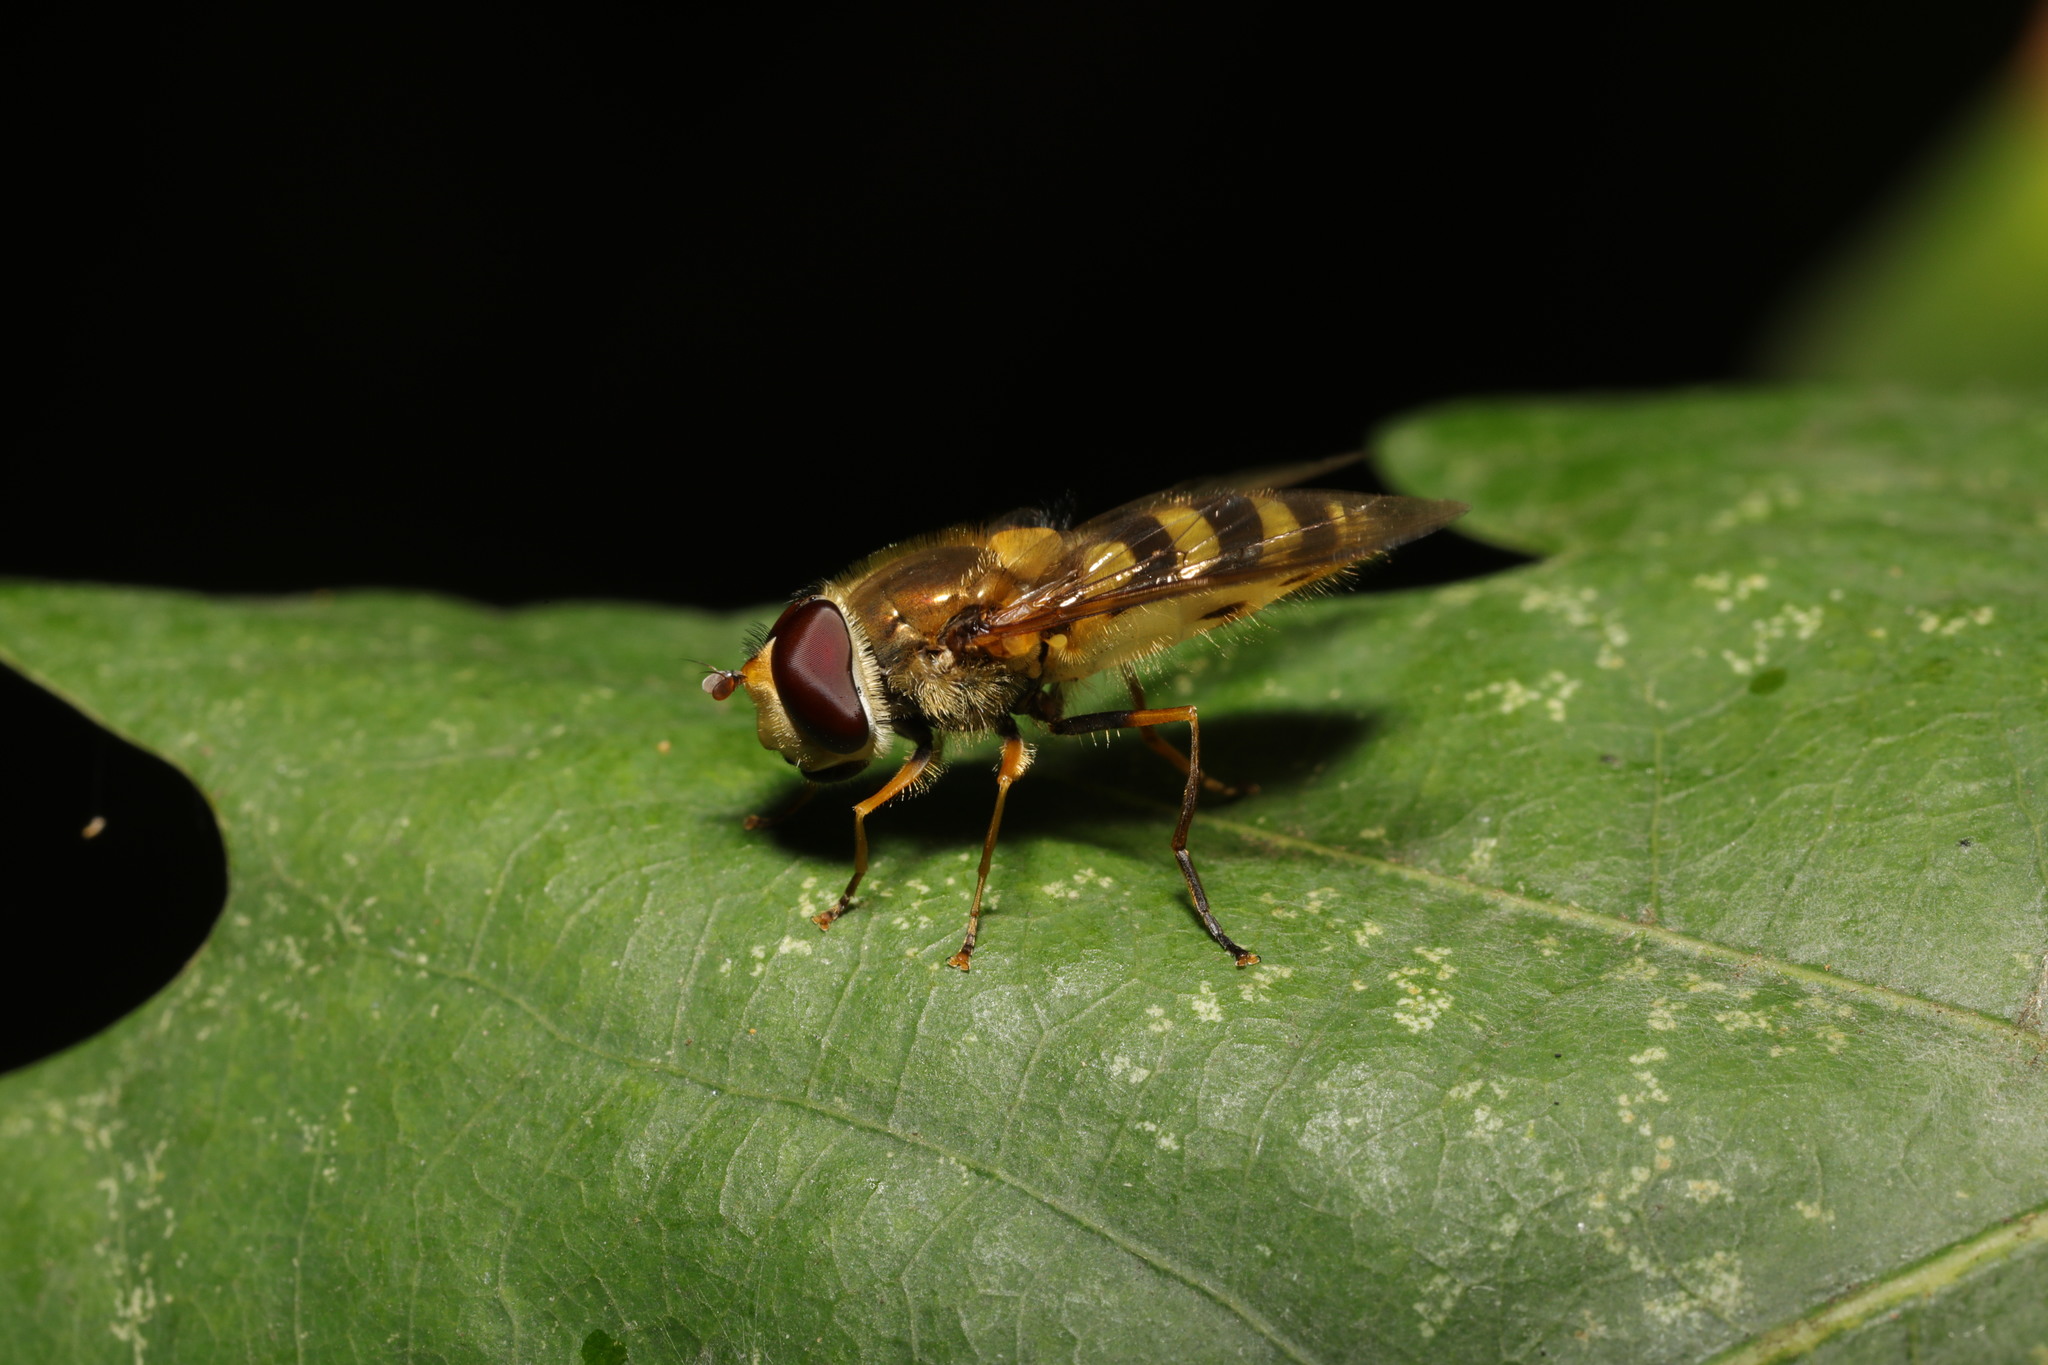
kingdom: Animalia
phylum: Arthropoda
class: Insecta
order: Diptera
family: Syrphidae
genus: Syrphus
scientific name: Syrphus vitripennis
